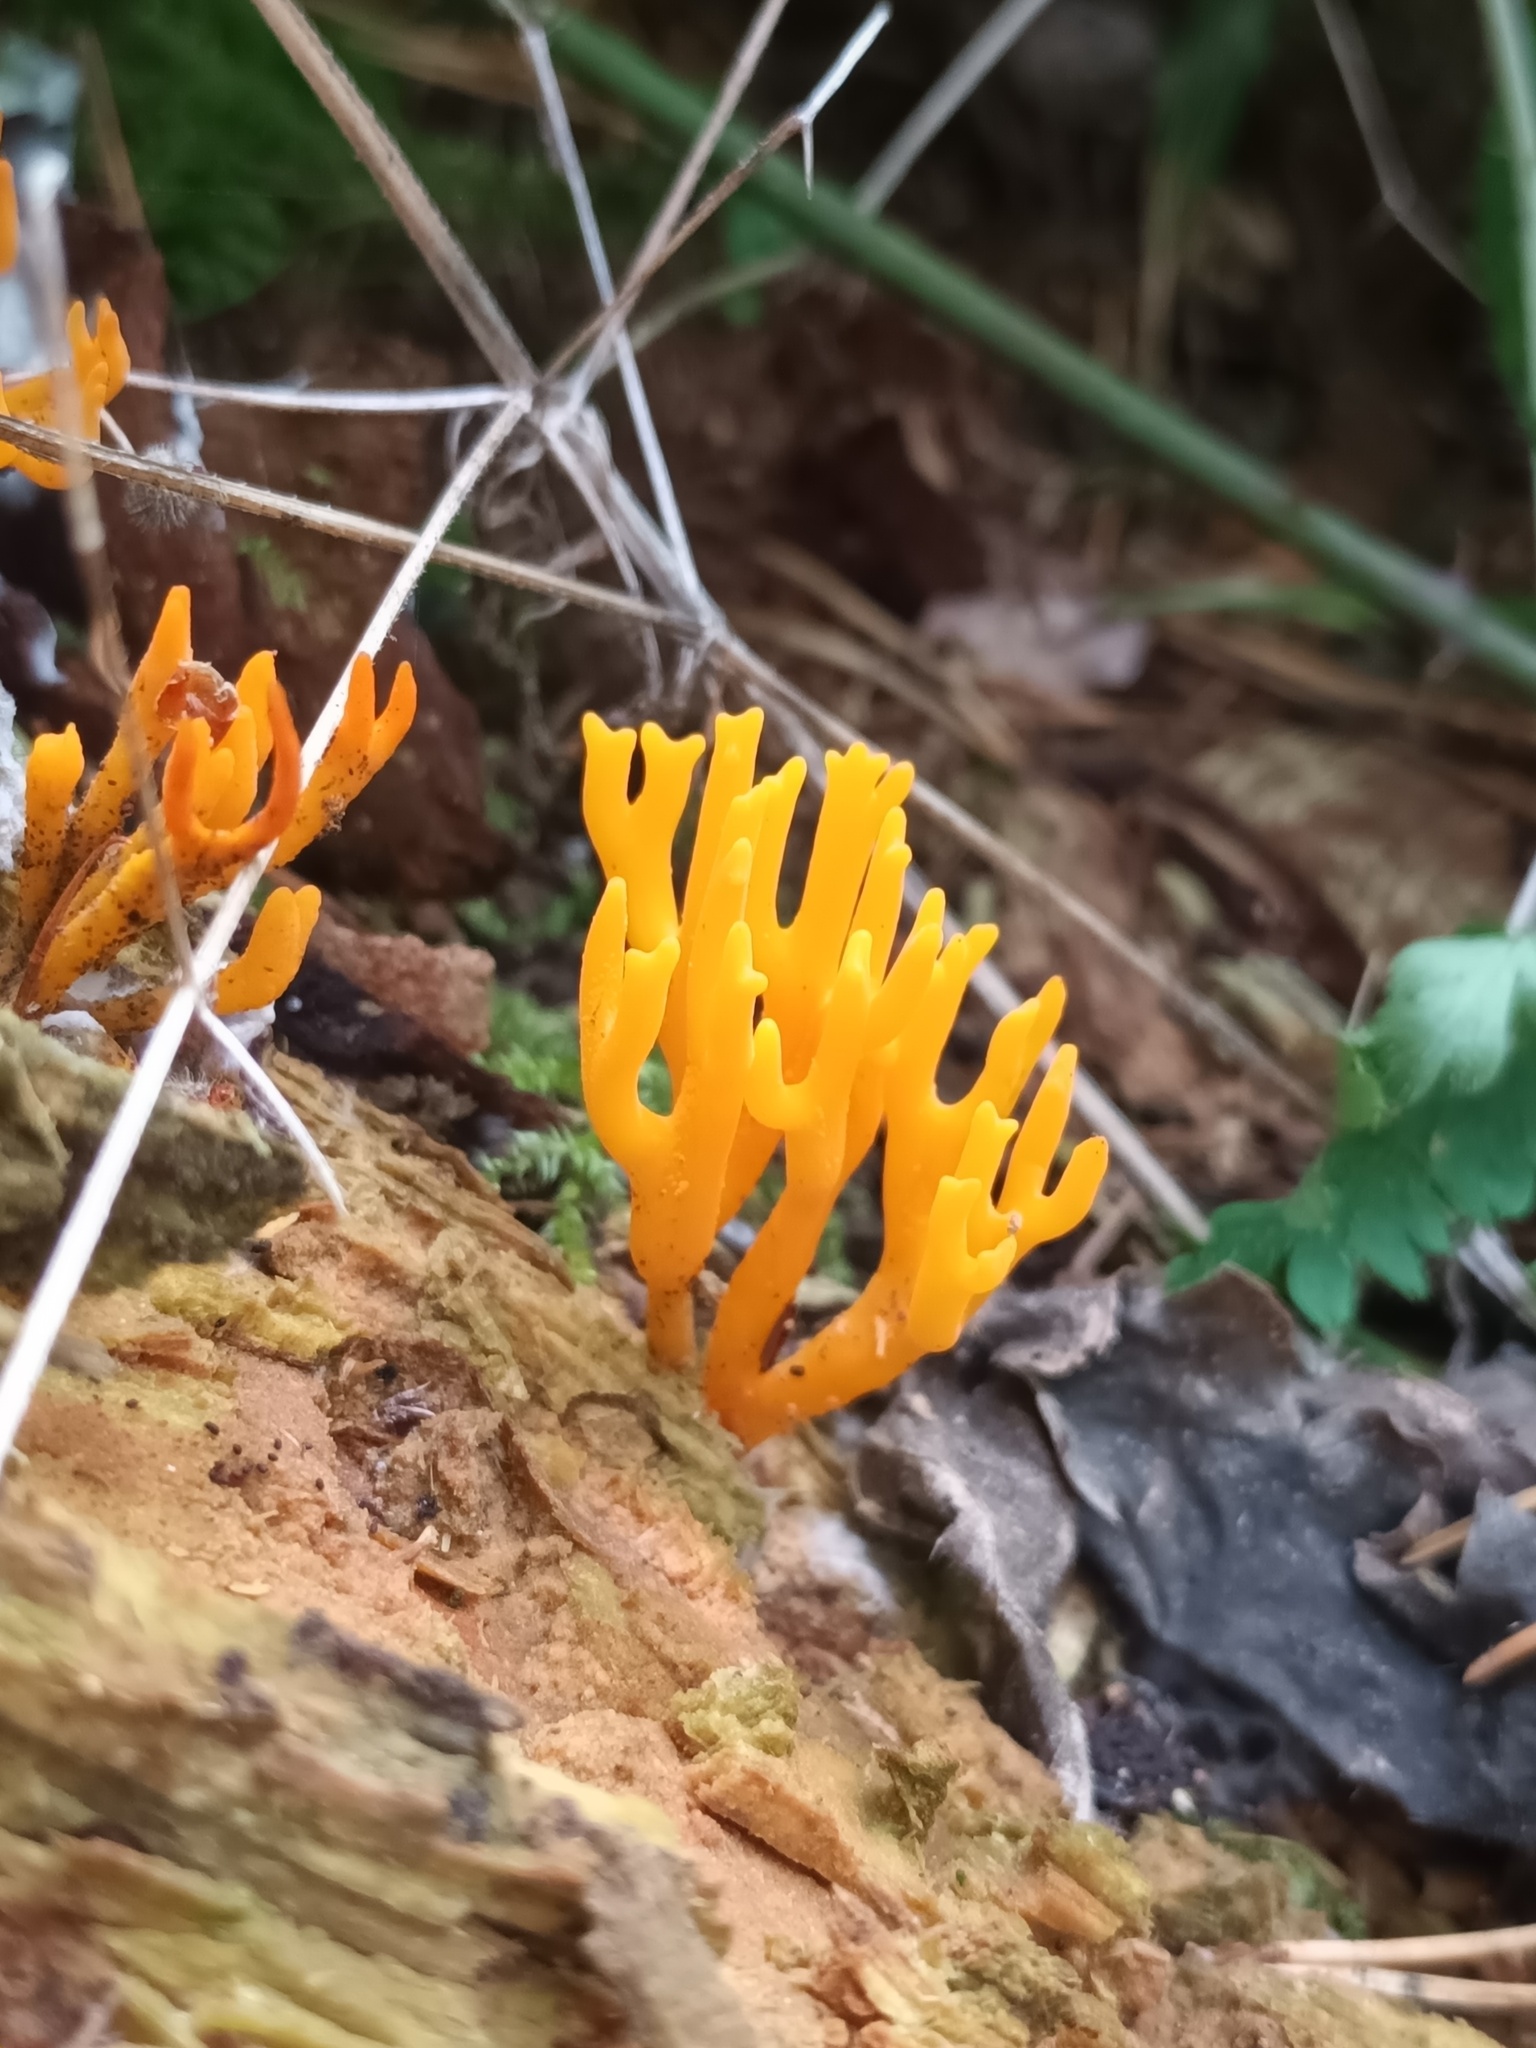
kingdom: Fungi
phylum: Basidiomycota
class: Dacrymycetes
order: Dacrymycetales
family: Dacrymycetaceae
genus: Calocera
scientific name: Calocera viscosa
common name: Yellow stagshorn
